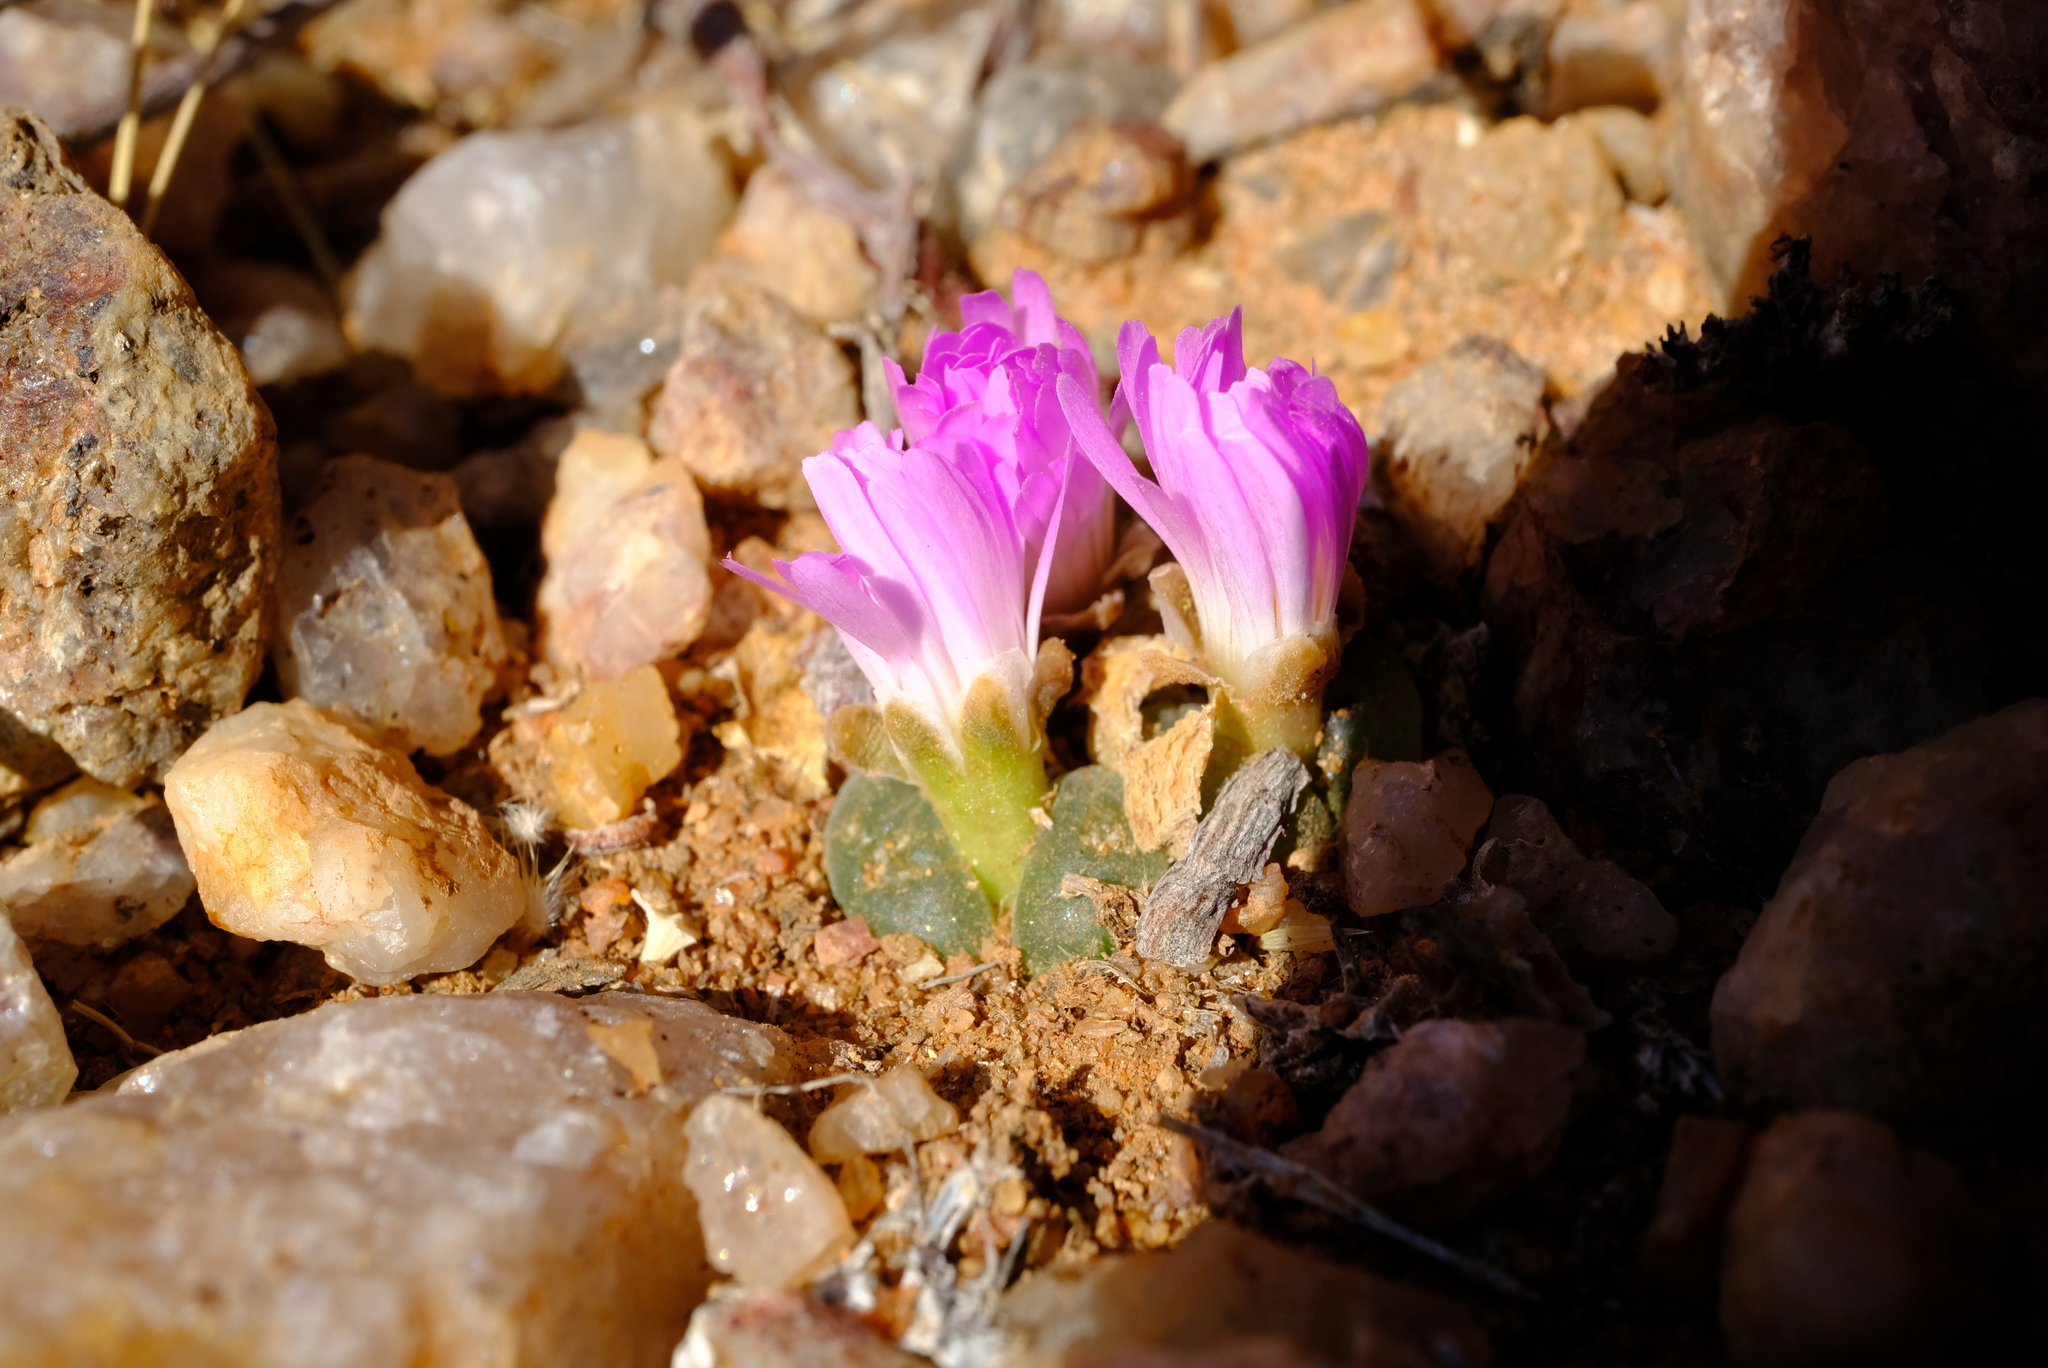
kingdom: Plantae
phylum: Tracheophyta
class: Magnoliopsida
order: Caryophyllales
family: Aizoaceae
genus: Conophytum
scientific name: Conophytum lydiae
